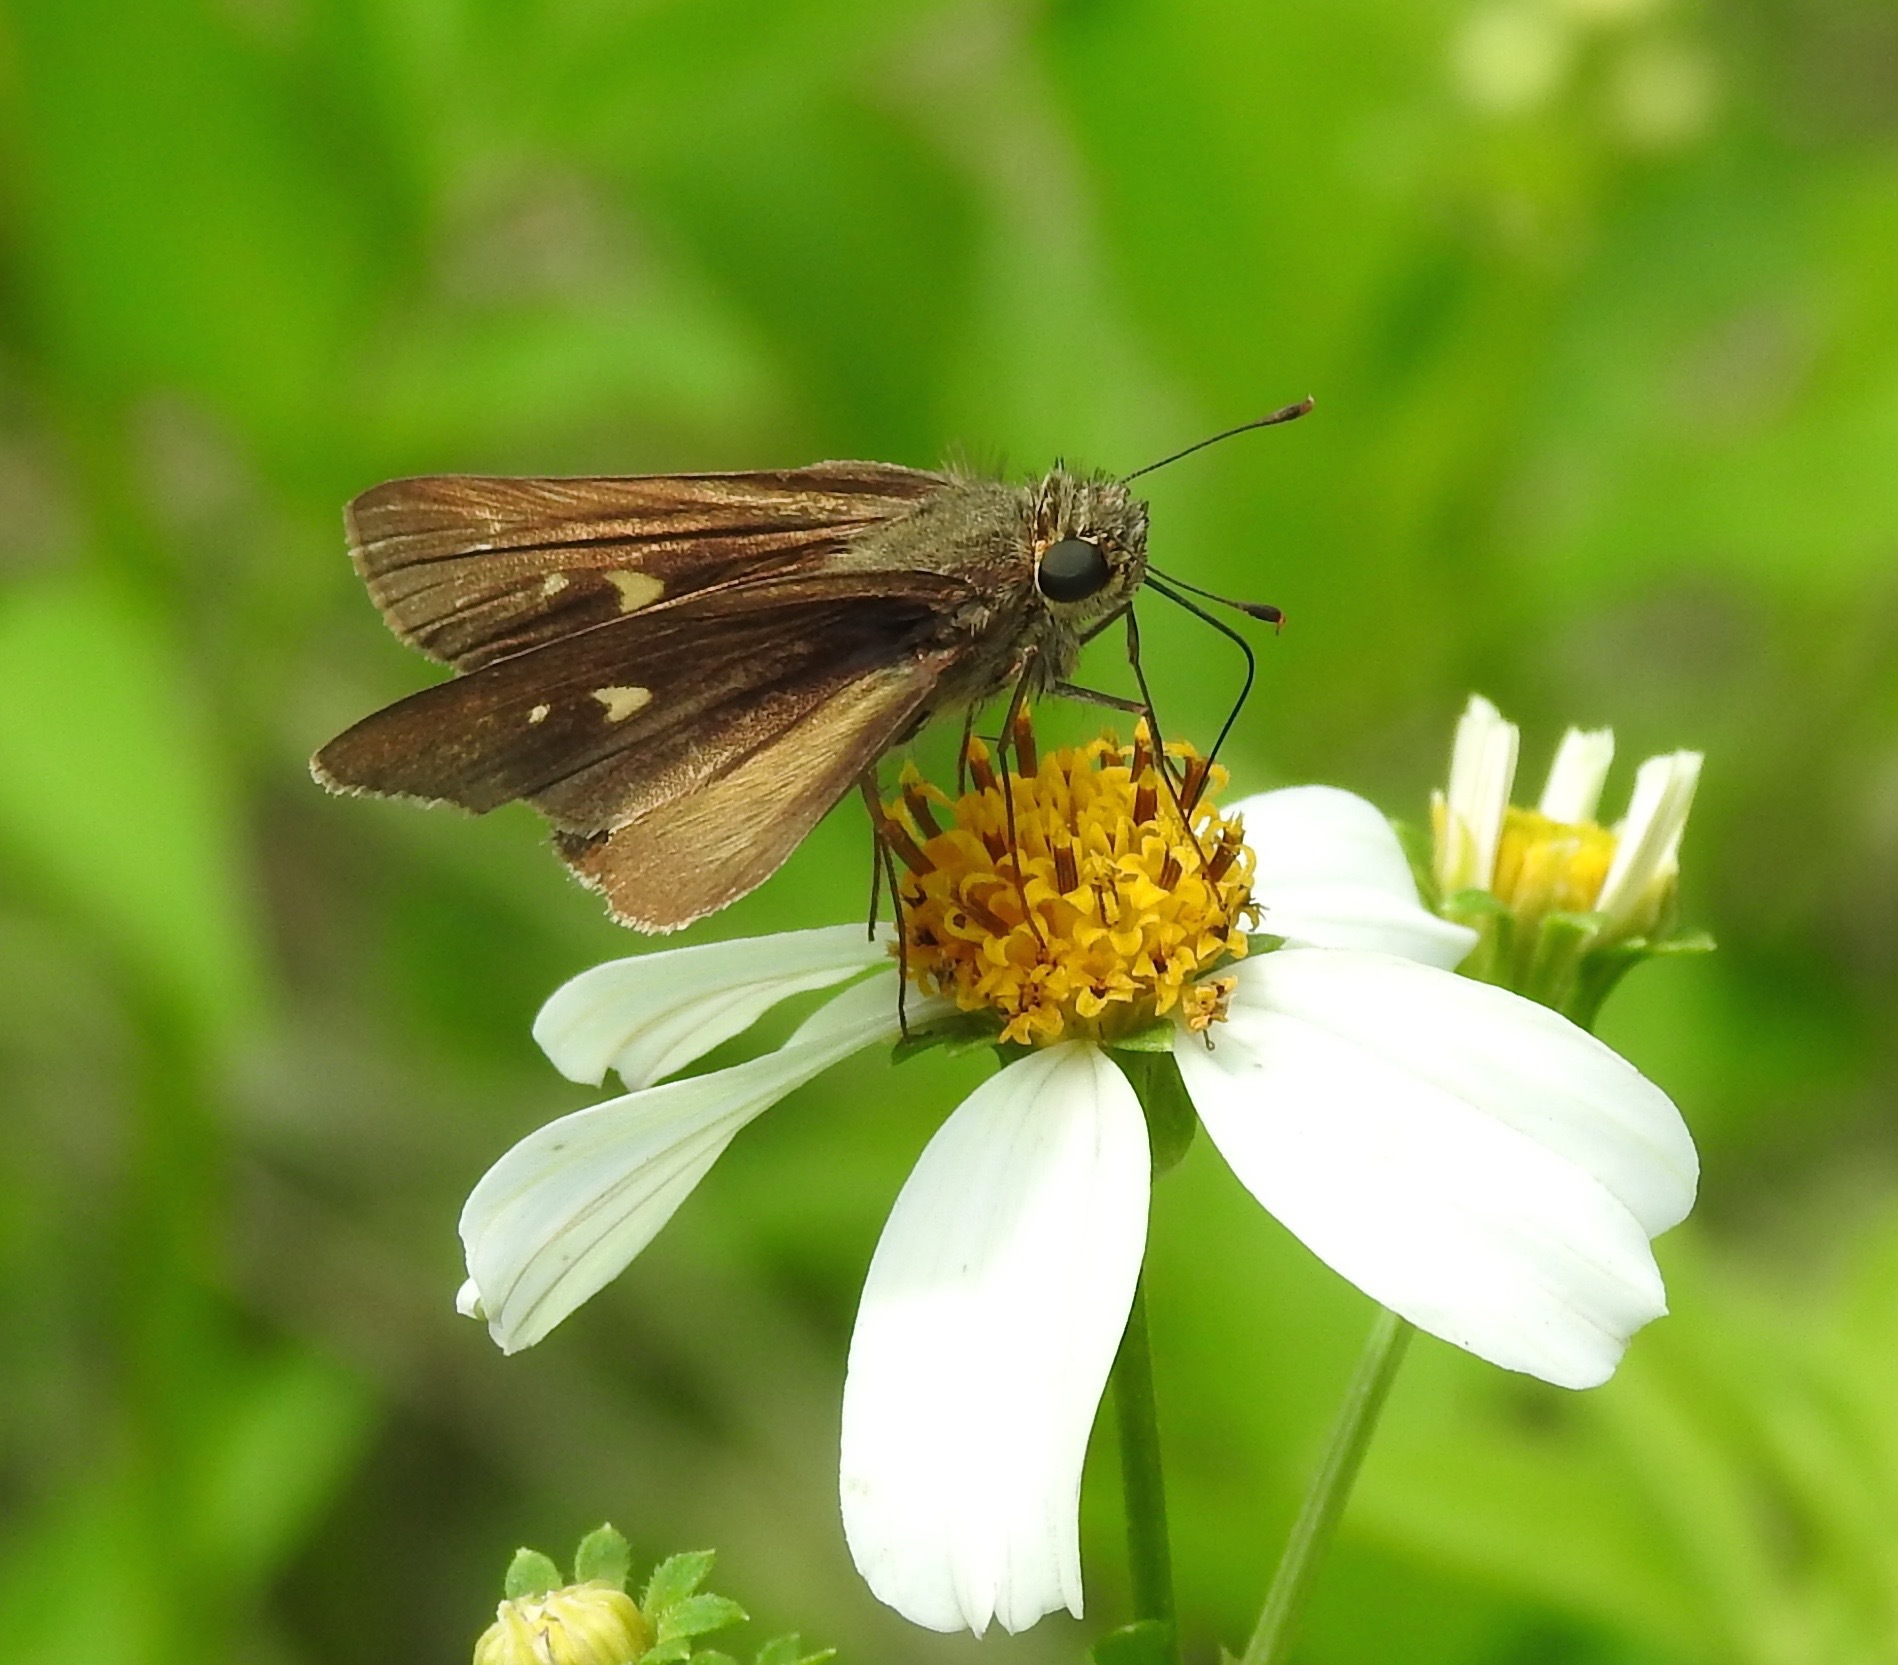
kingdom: Animalia
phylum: Arthropoda
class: Insecta
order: Lepidoptera
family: Hesperiidae
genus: Panoquina
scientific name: Panoquina ocola
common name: Ocola skipper
